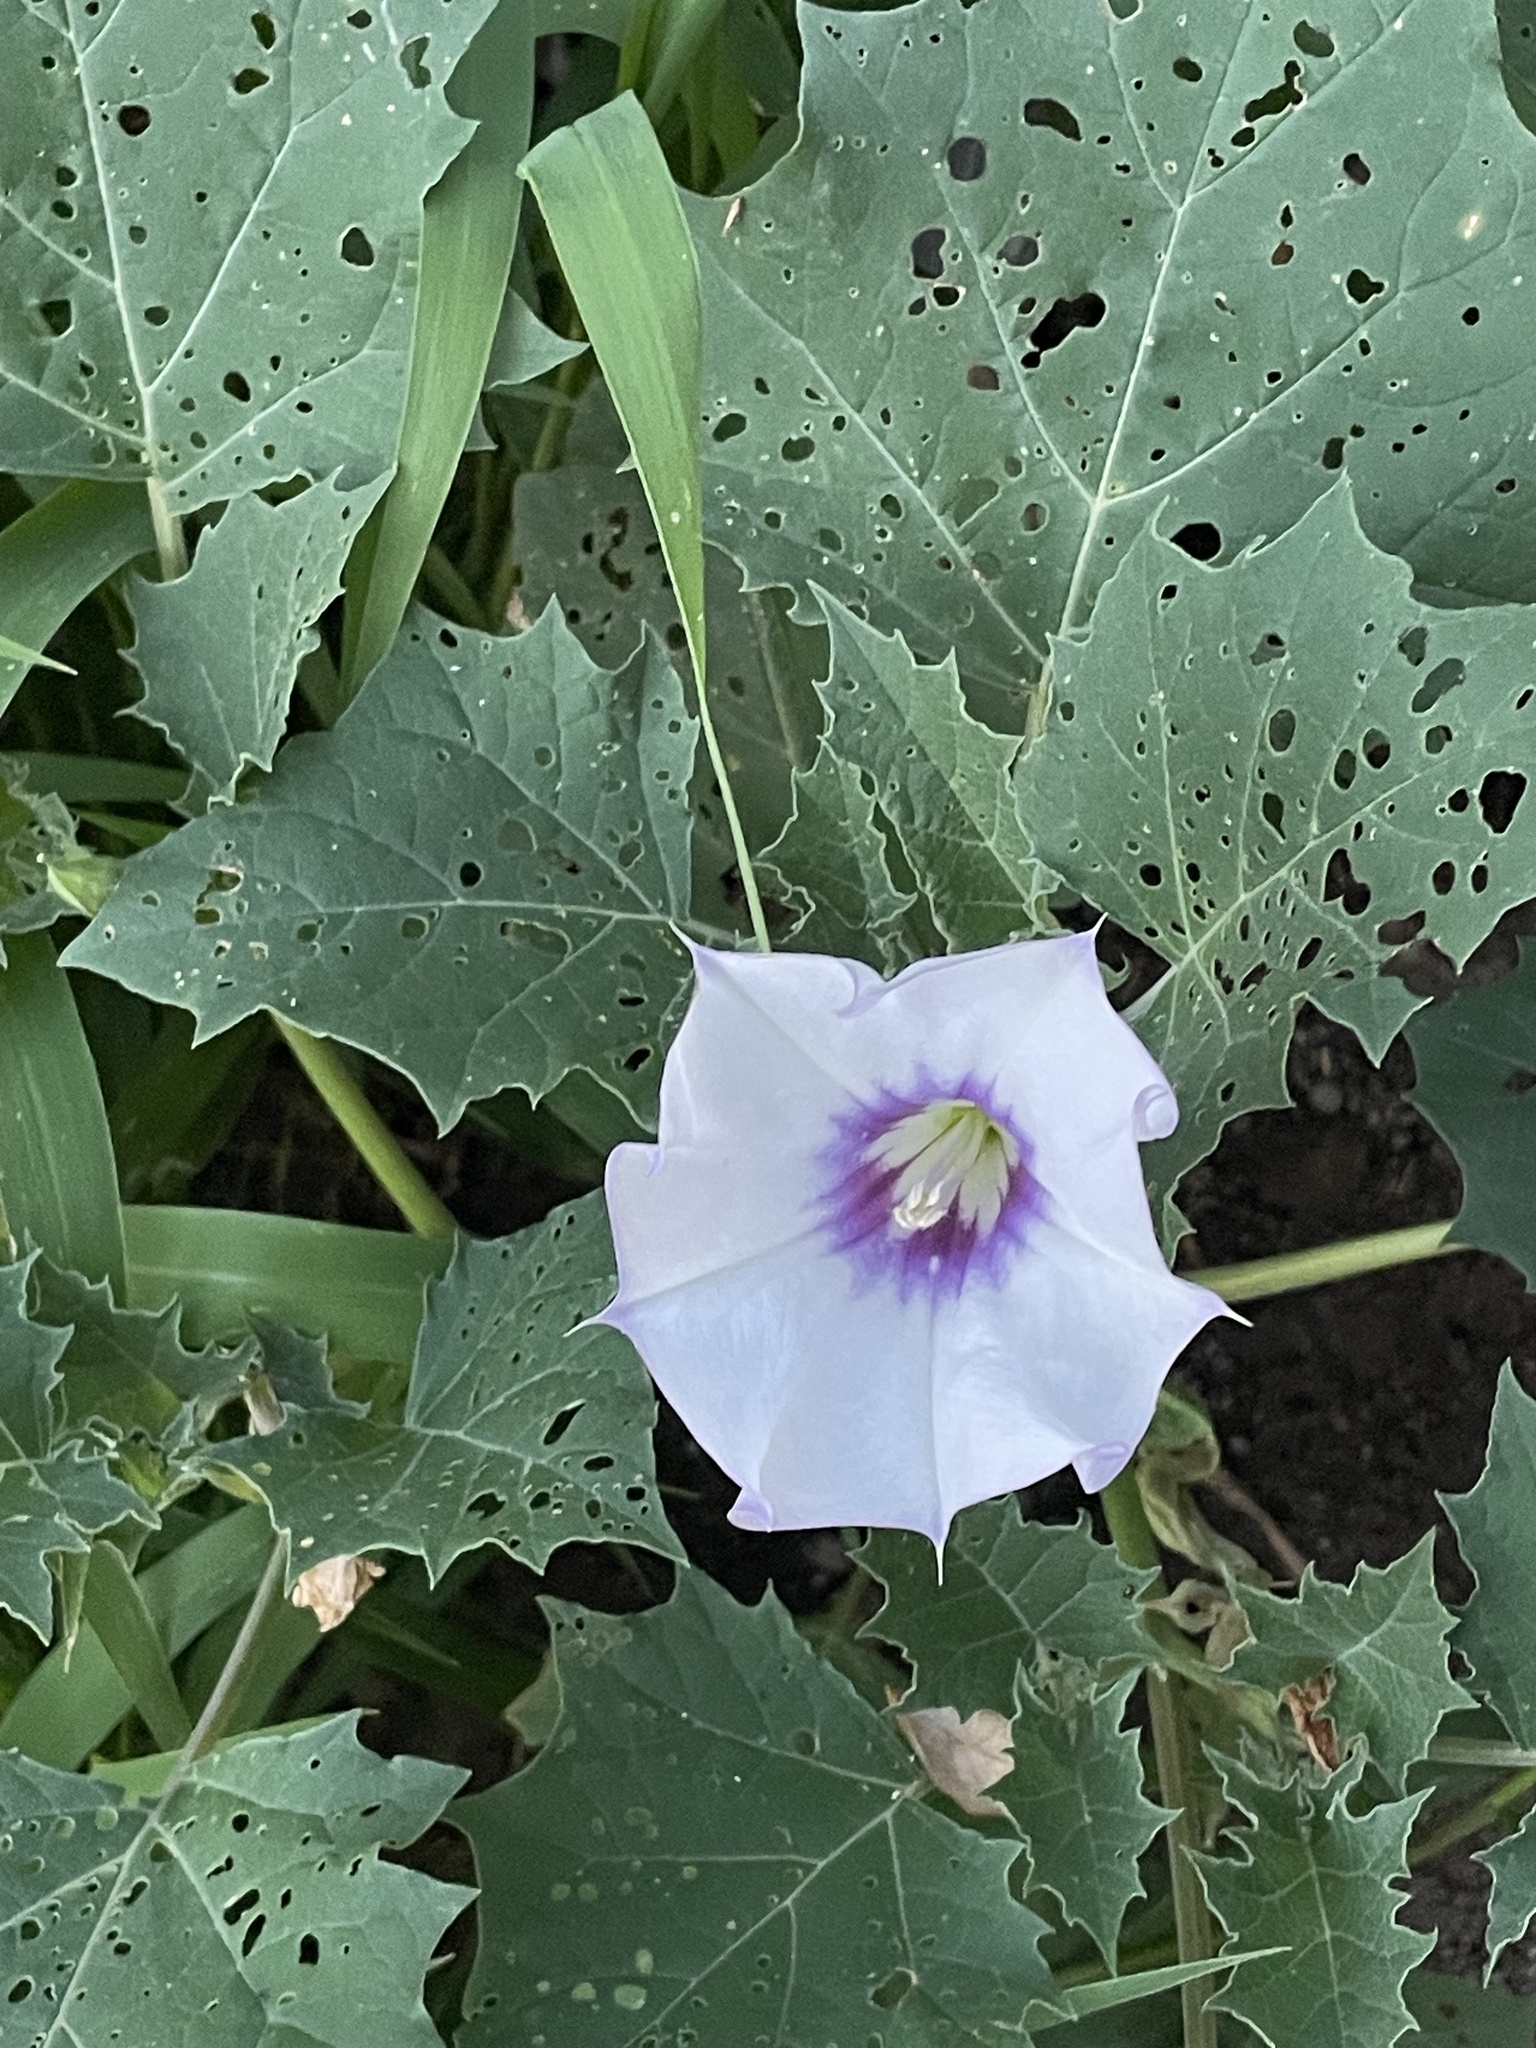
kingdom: Plantae
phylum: Tracheophyta
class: Magnoliopsida
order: Solanales
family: Solanaceae
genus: Datura
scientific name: Datura discolor
